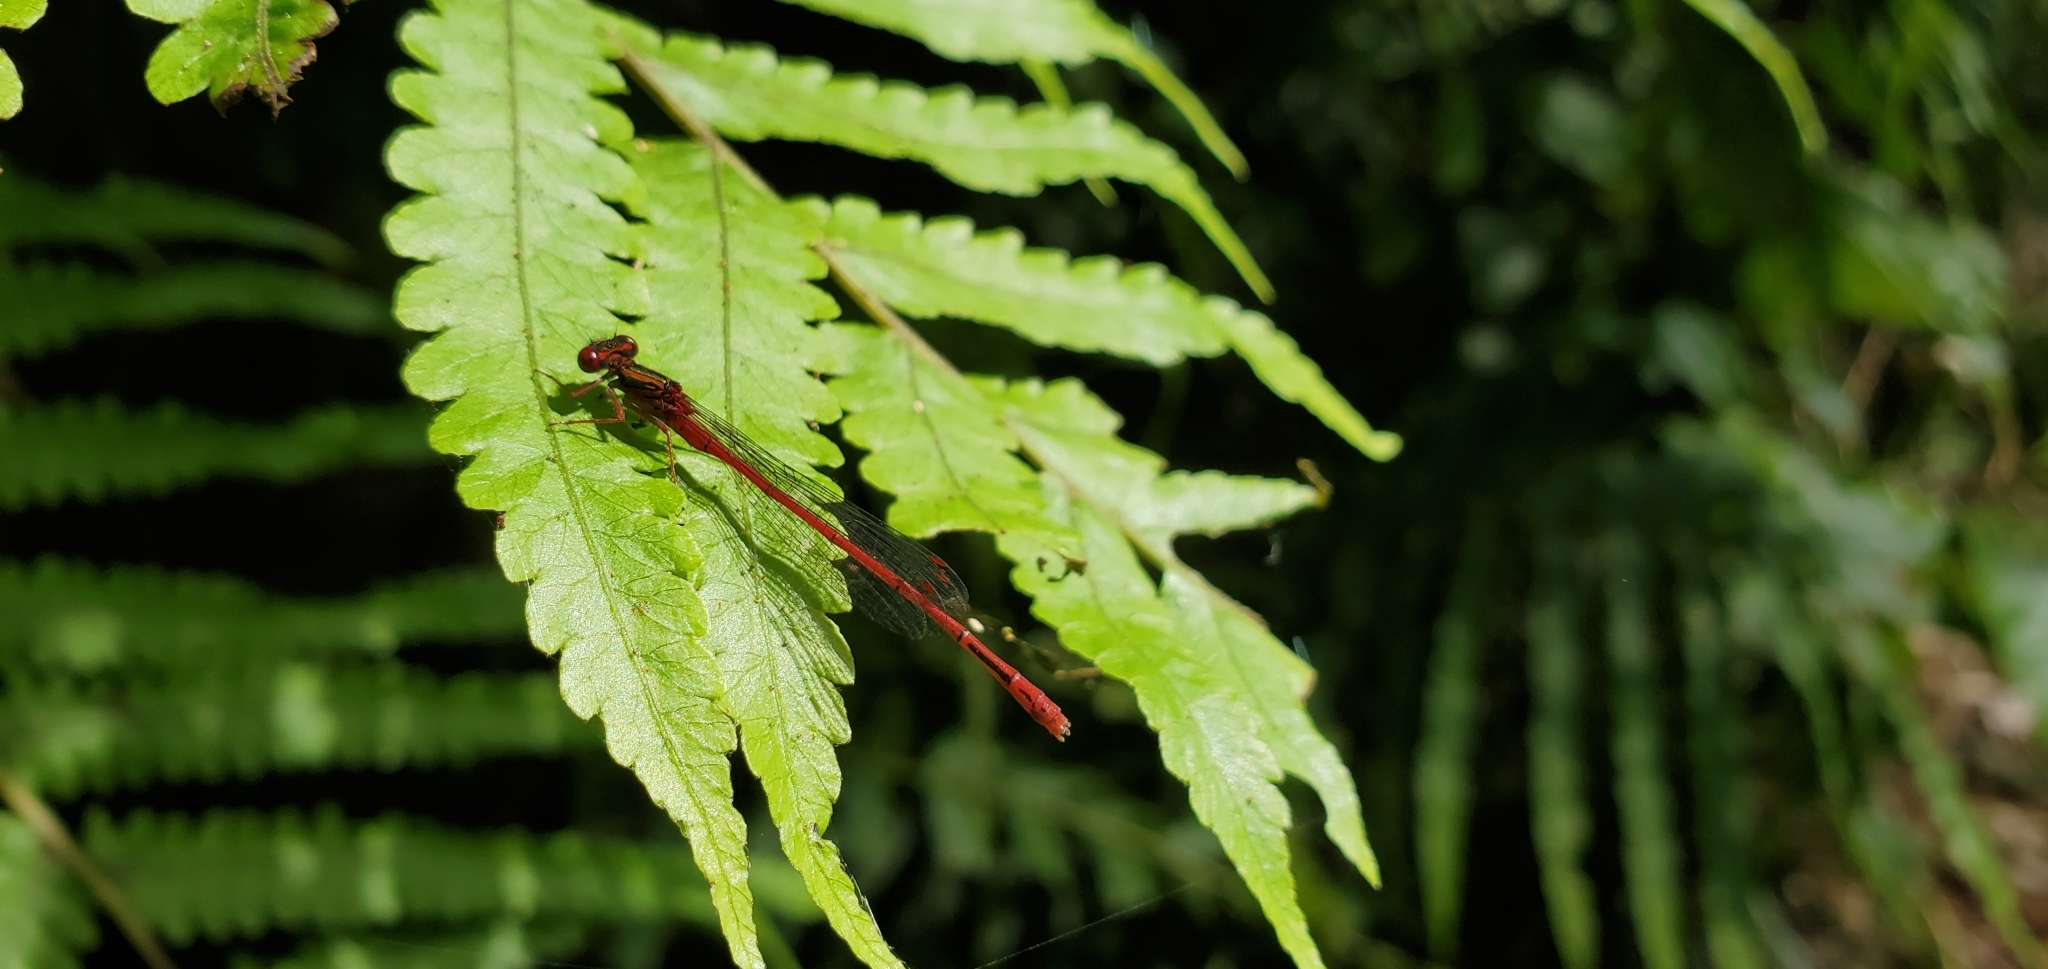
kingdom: Animalia
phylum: Arthropoda
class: Insecta
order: Odonata
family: Coenagrionidae
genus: Xanthocnemis
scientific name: Xanthocnemis zealandica
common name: Common redcoat damselfly
